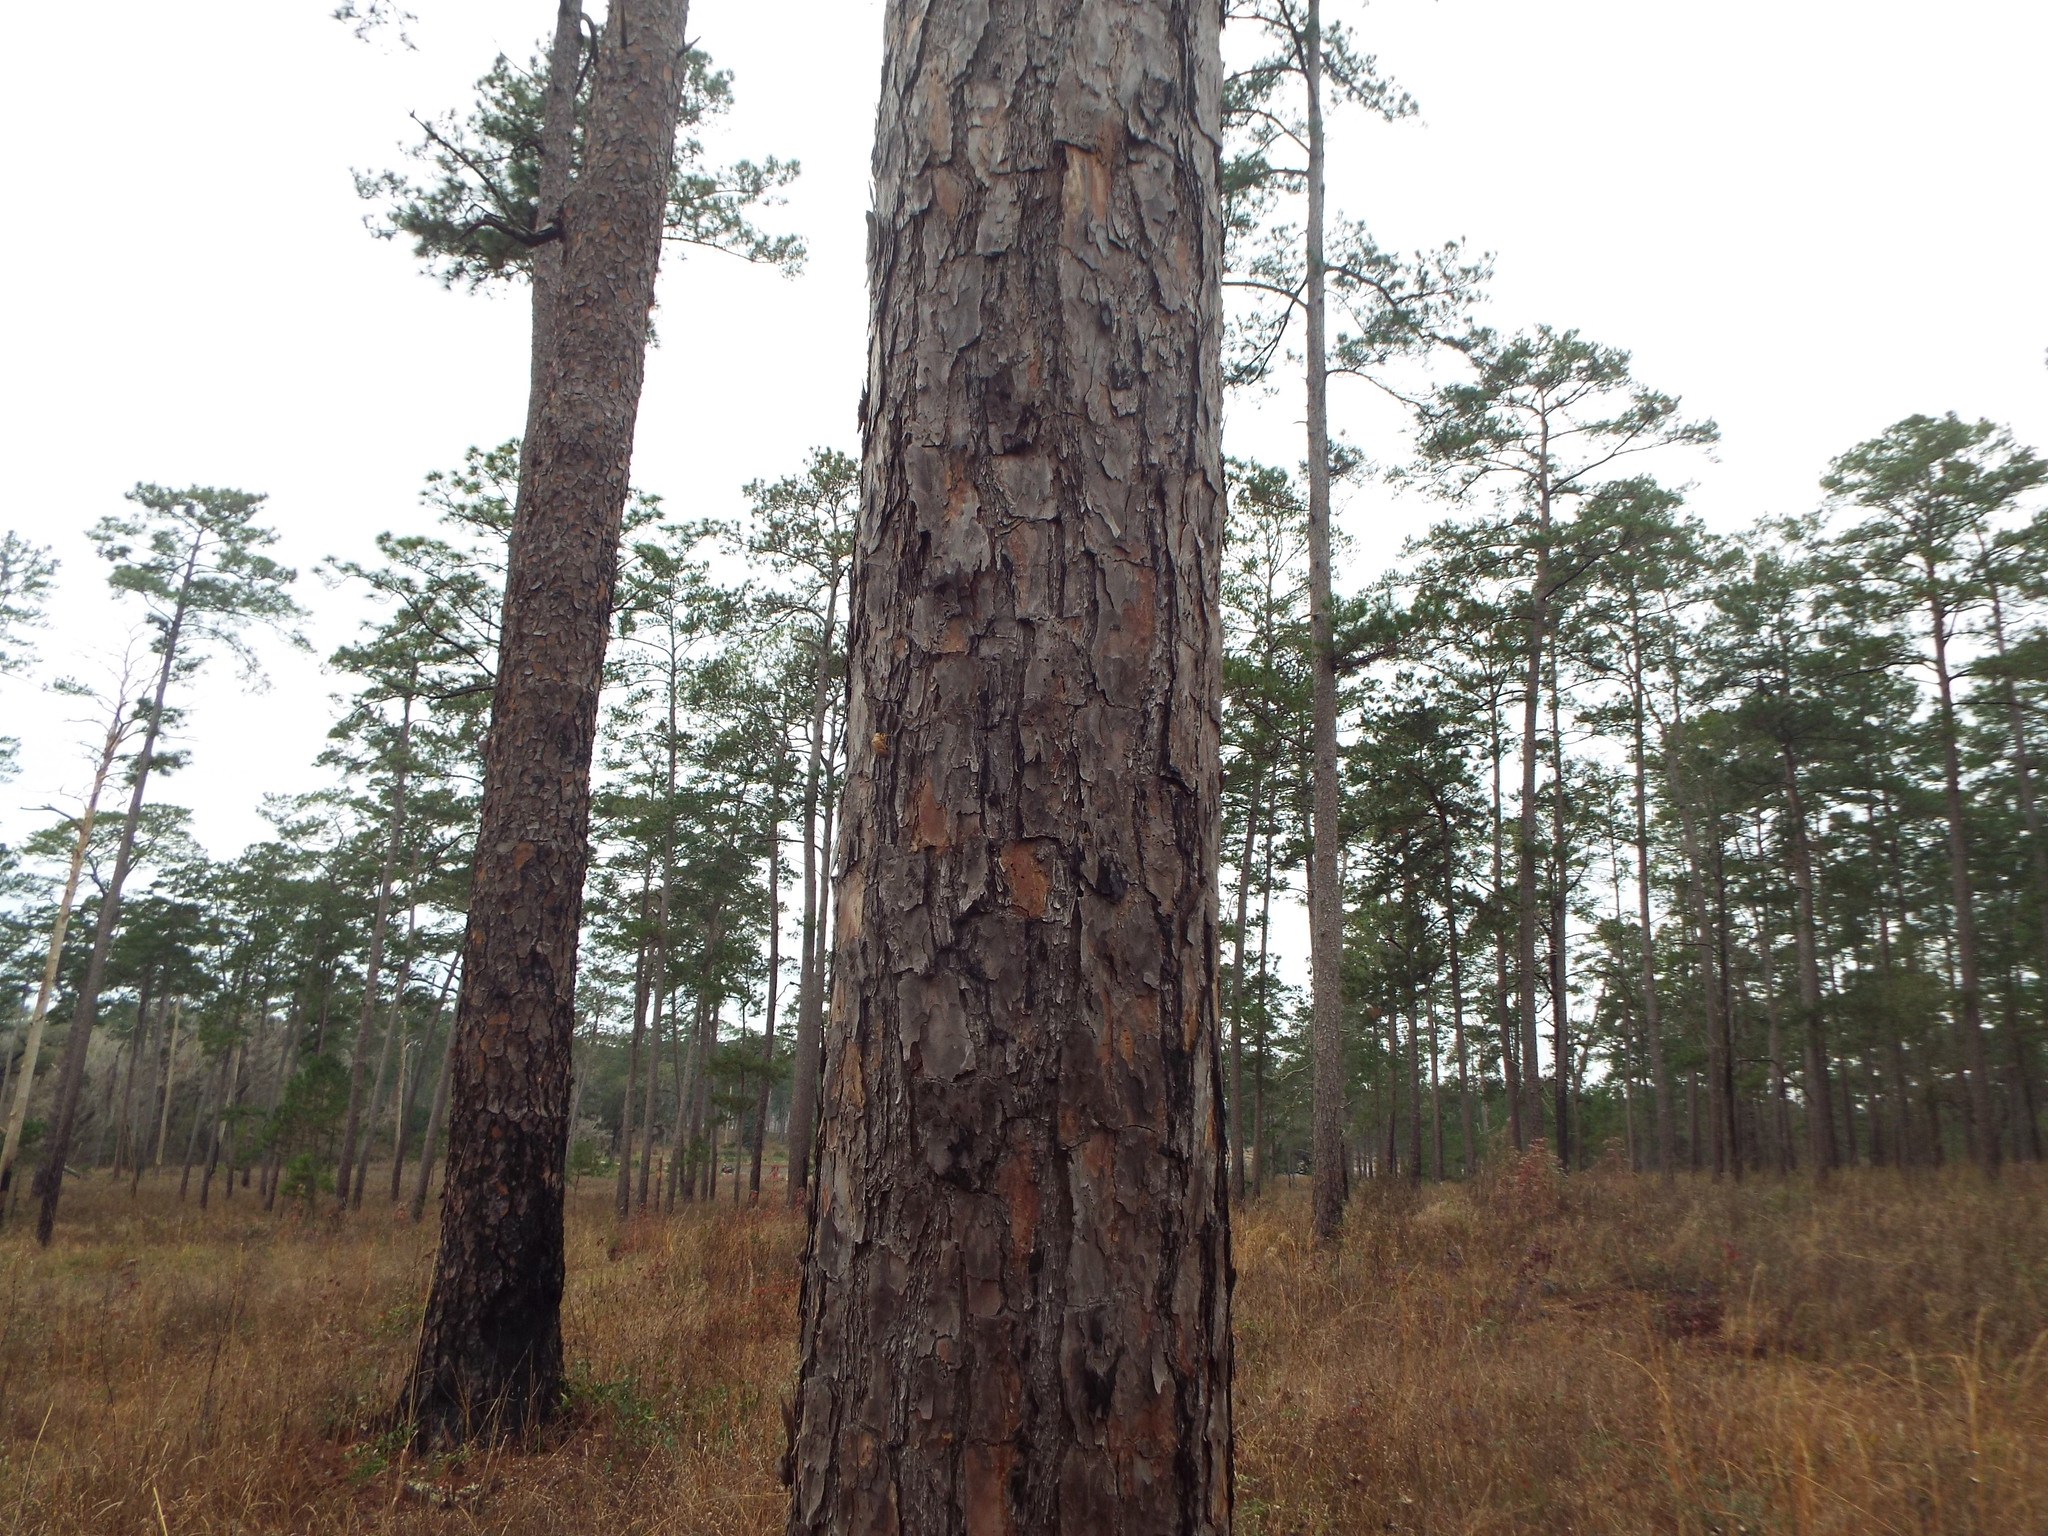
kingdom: Plantae
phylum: Tracheophyta
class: Pinopsida
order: Pinales
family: Pinaceae
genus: Pinus
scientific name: Pinus echinata
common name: Shortleaf pine
